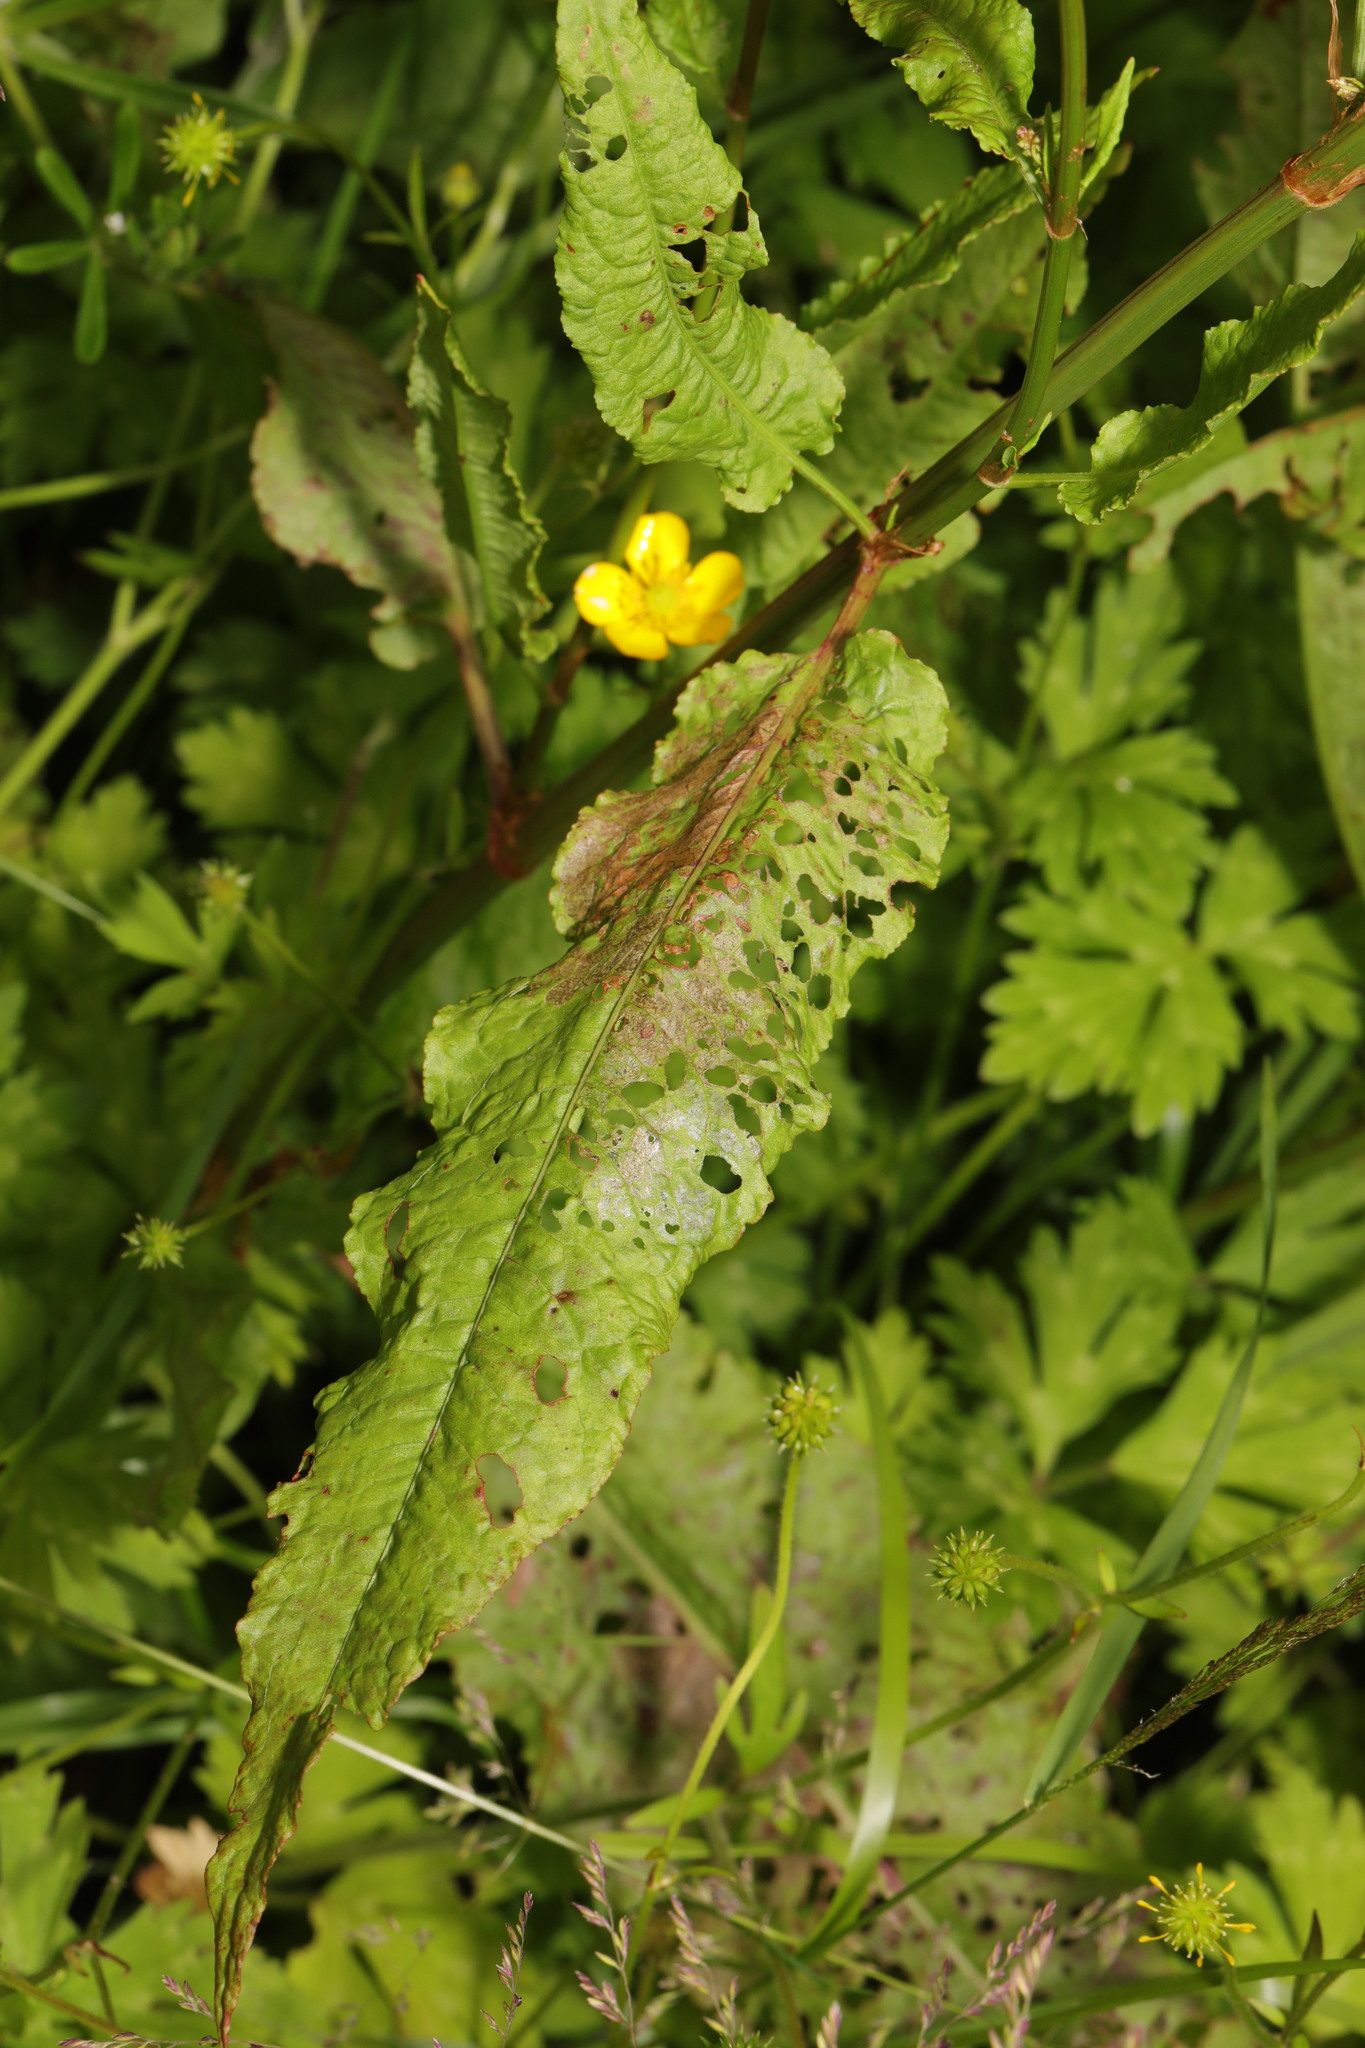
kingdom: Plantae
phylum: Tracheophyta
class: Magnoliopsida
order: Caryophyllales
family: Polygonaceae
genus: Rumex
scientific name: Rumex sanguineus
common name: Wood dock
